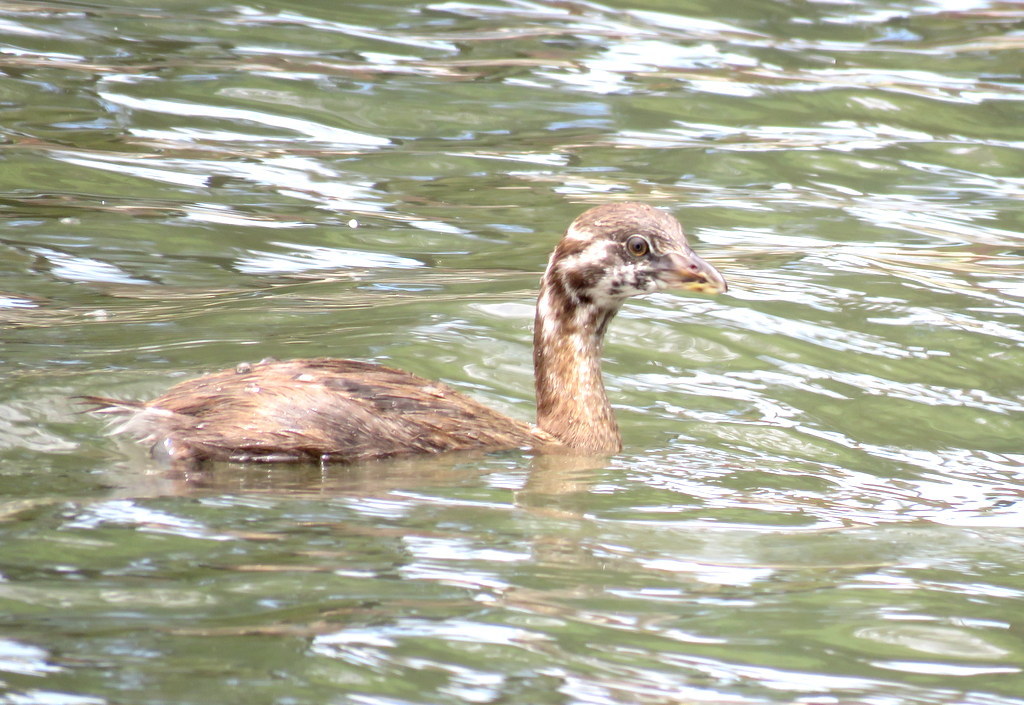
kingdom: Animalia
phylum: Chordata
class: Aves
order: Podicipediformes
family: Podicipedidae
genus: Podilymbus
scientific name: Podilymbus podiceps
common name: Pied-billed grebe
